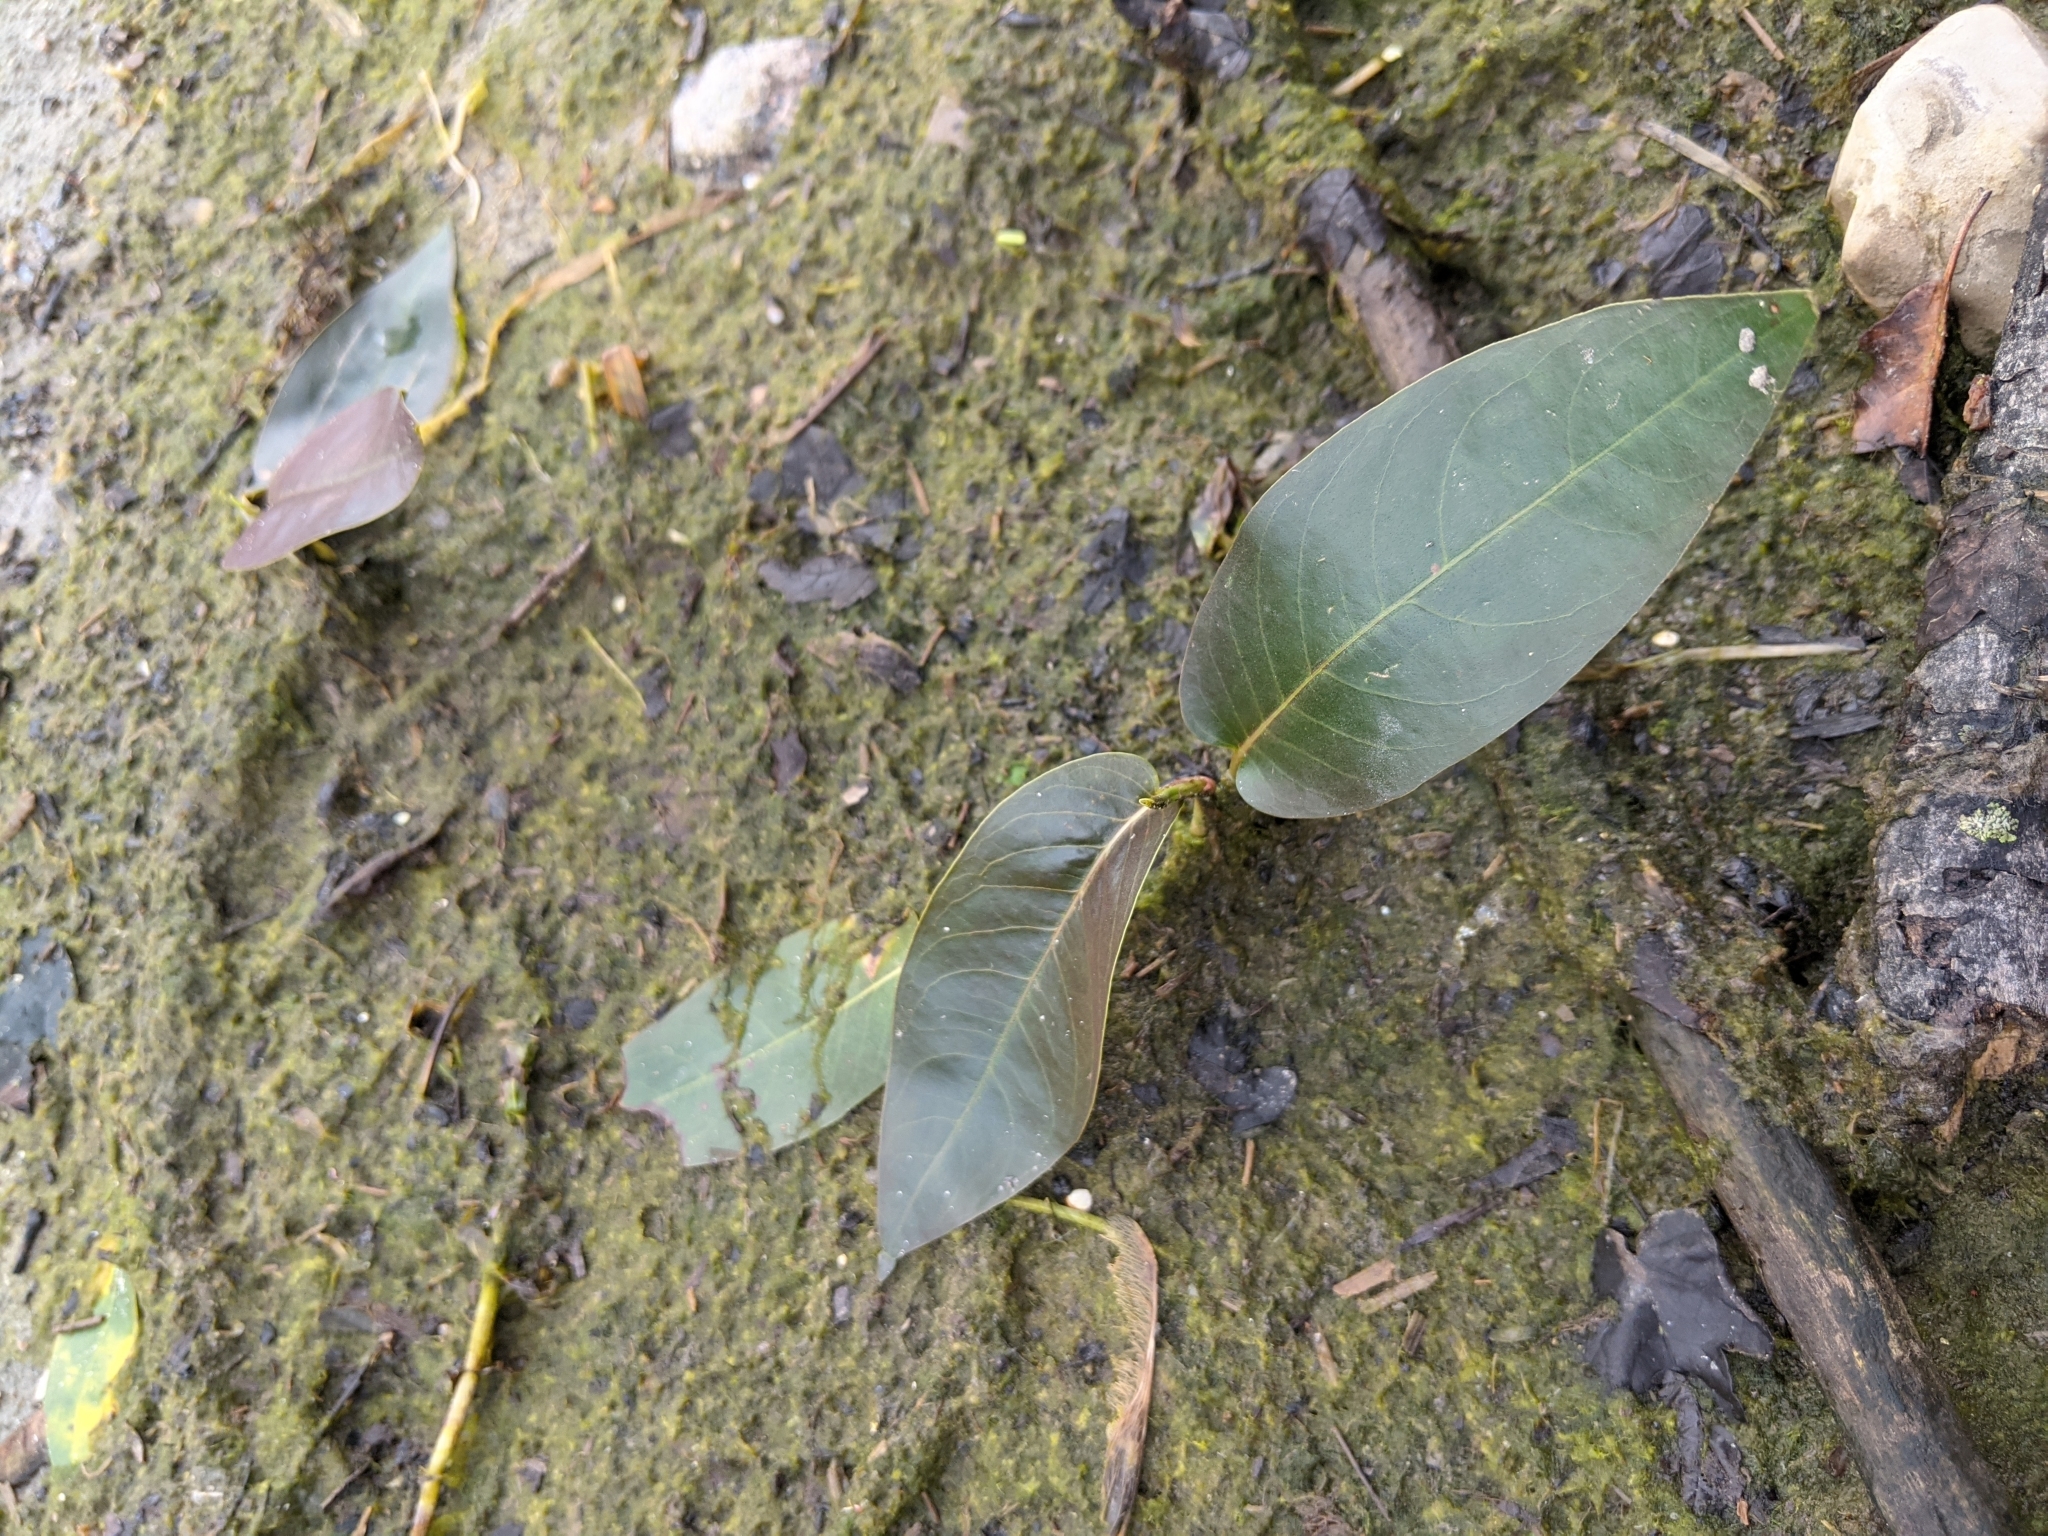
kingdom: Plantae
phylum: Tracheophyta
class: Magnoliopsida
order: Caryophyllales
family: Polygonaceae
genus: Persicaria
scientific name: Persicaria amphibia
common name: Amphibious bistort
